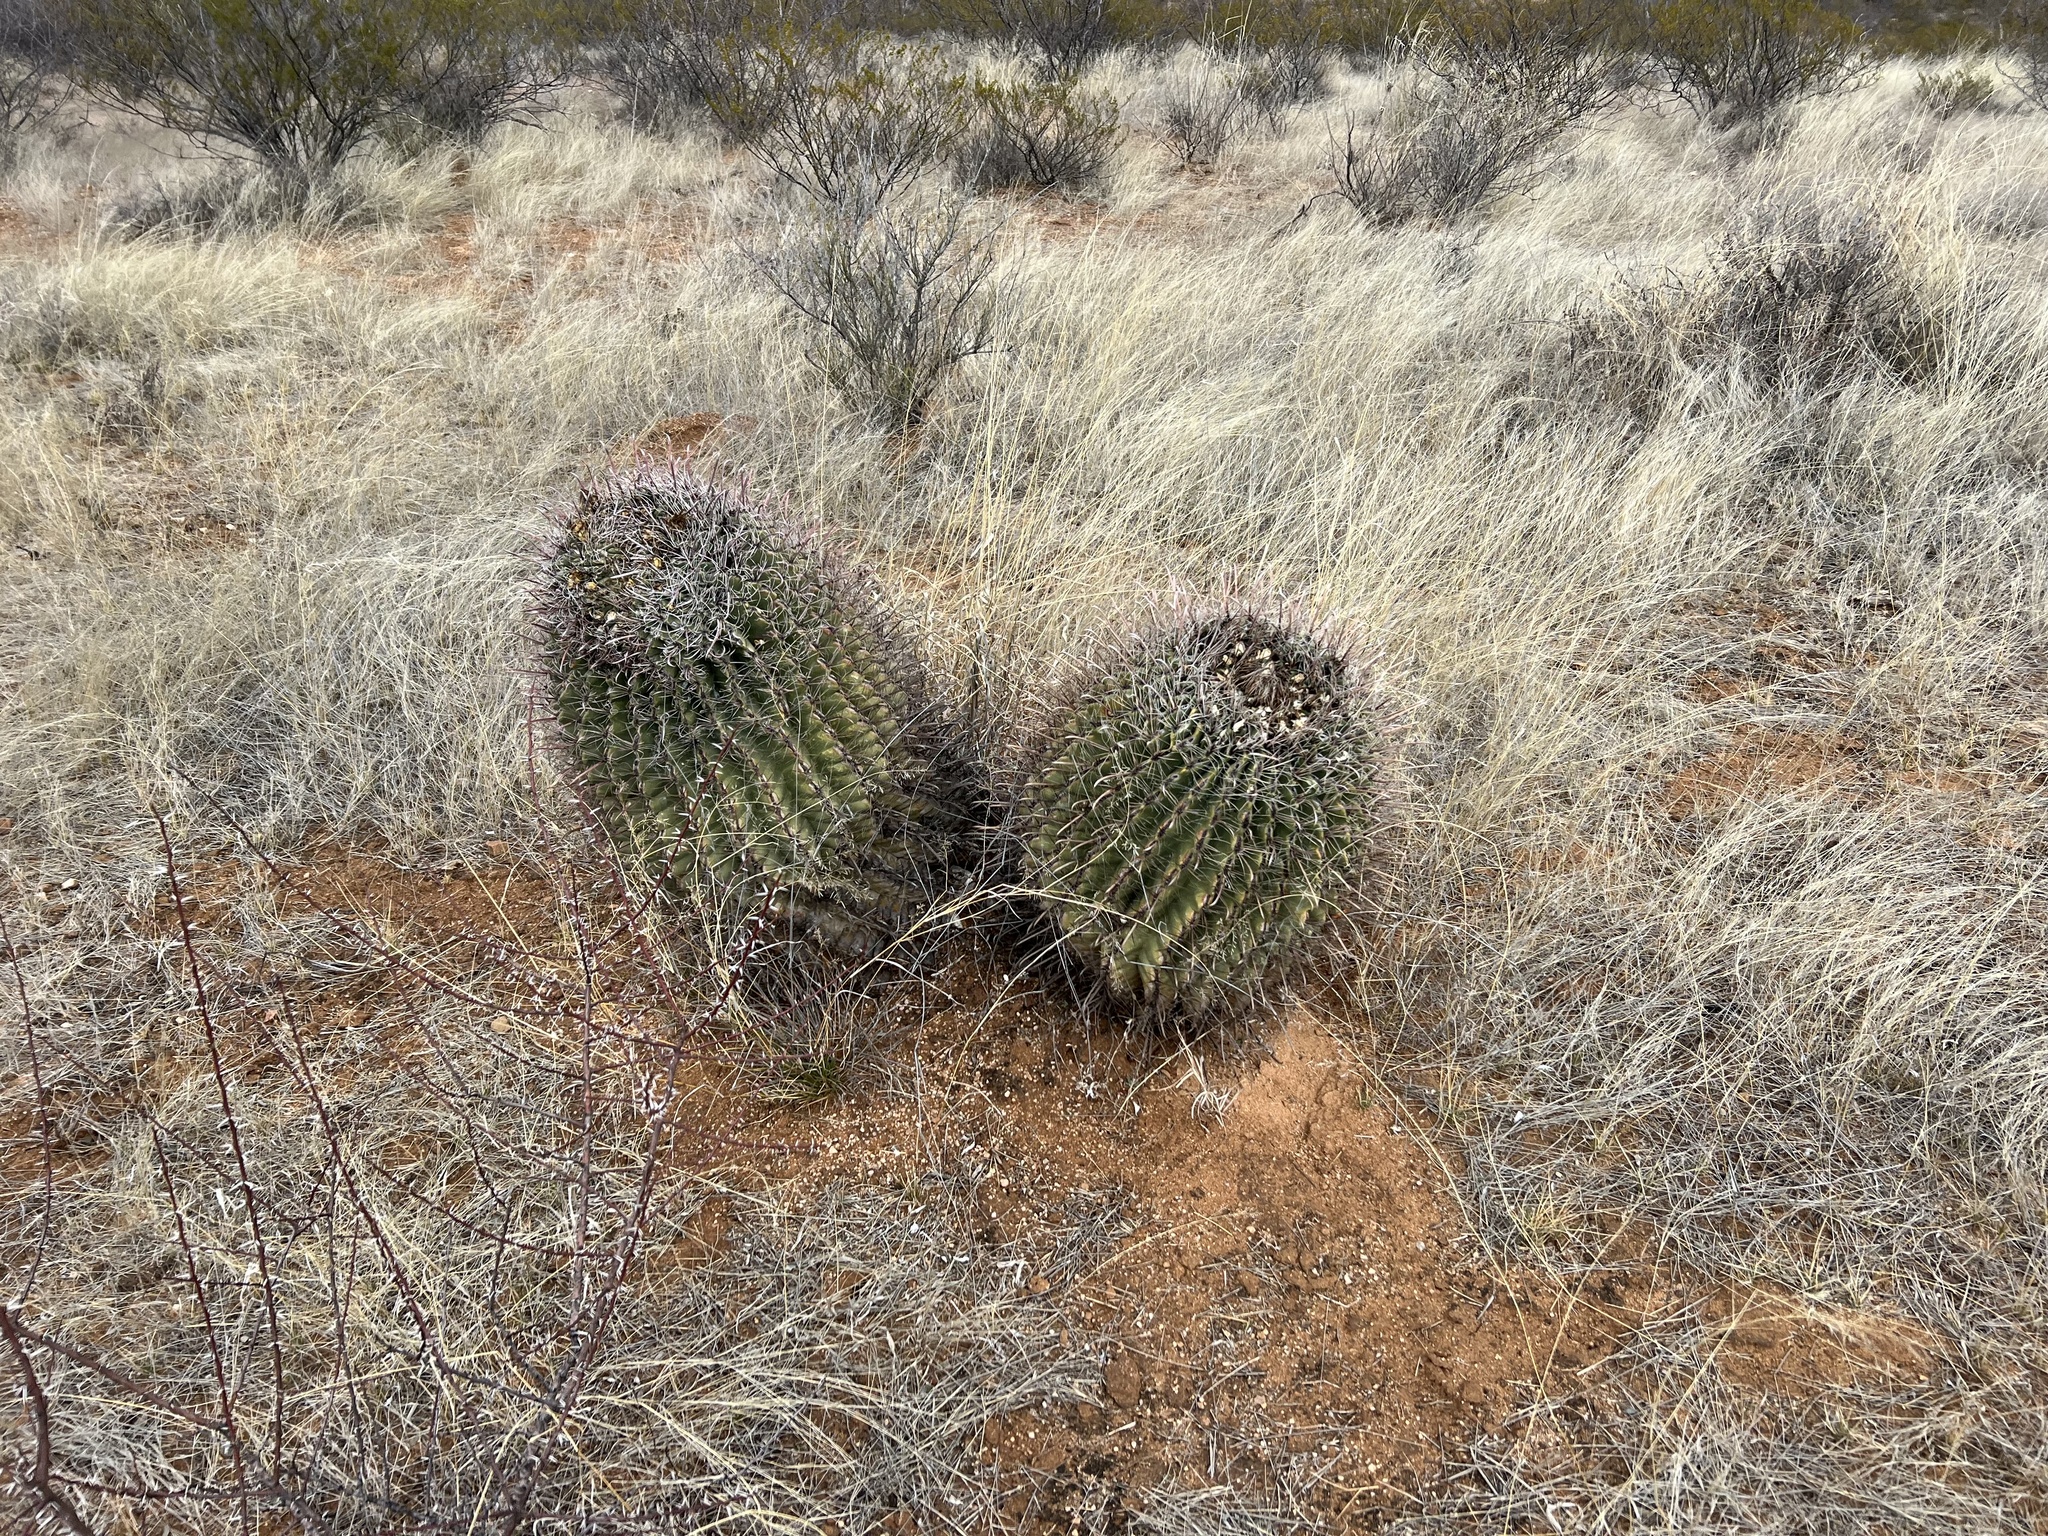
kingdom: Plantae
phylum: Tracheophyta
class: Magnoliopsida
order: Caryophyllales
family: Cactaceae
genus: Ferocactus
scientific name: Ferocactus wislizeni
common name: Candy barrel cactus
